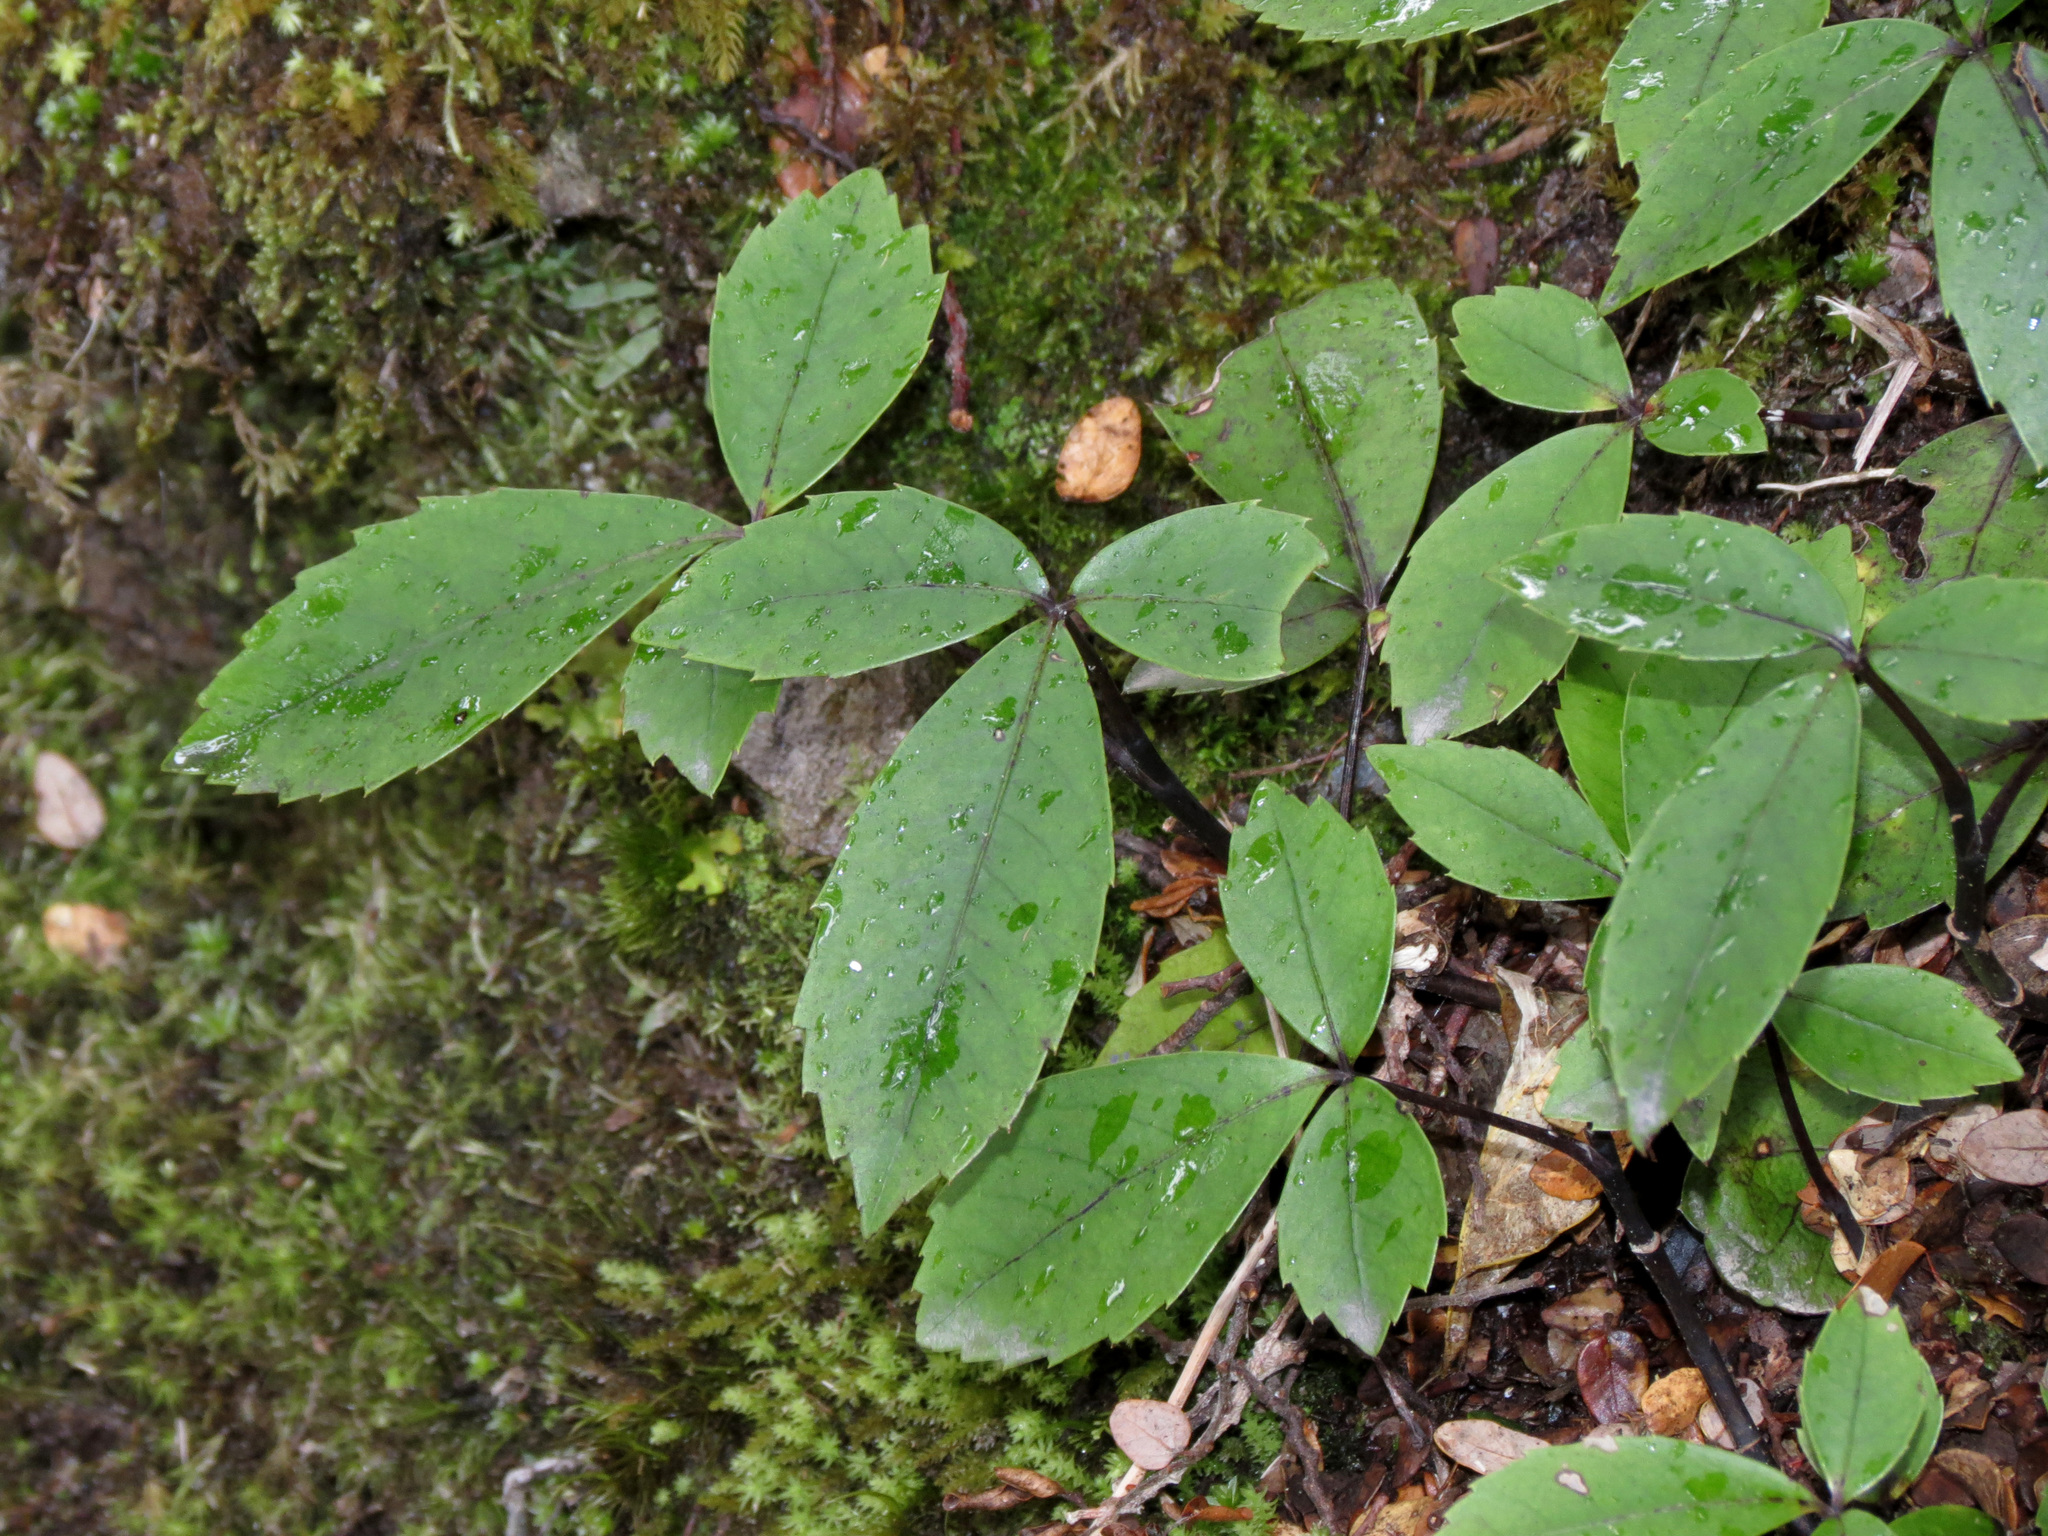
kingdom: Plantae
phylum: Tracheophyta
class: Magnoliopsida
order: Apiales
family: Araliaceae
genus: Neopanax
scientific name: Neopanax colensoi
